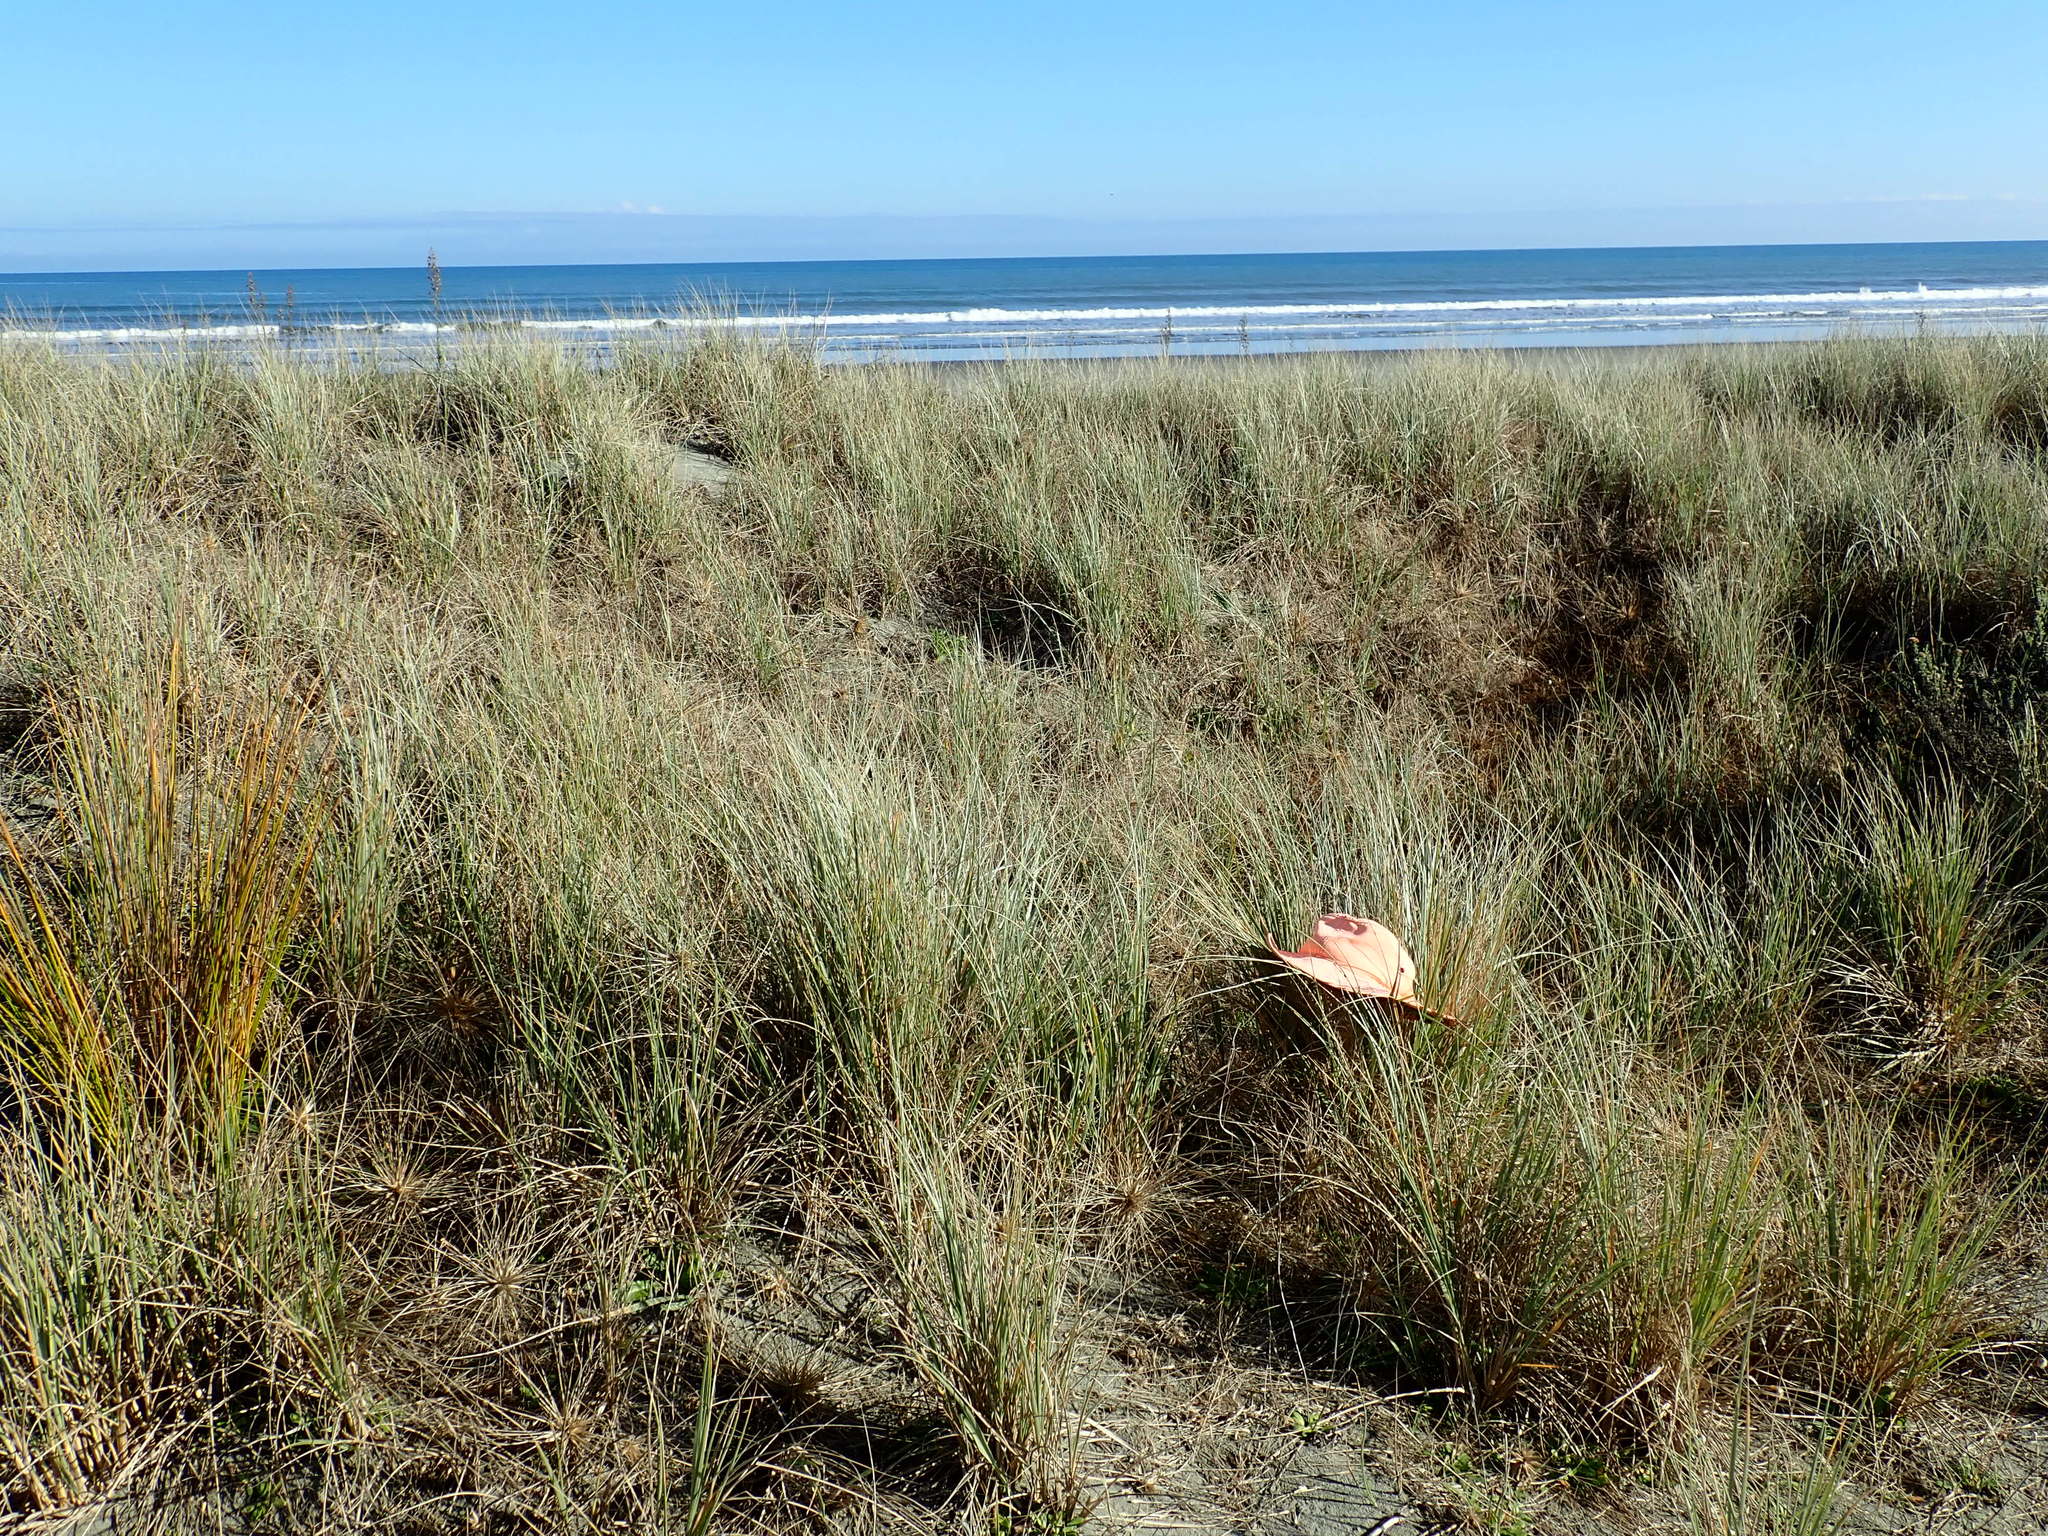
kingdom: Animalia
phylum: Arthropoda
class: Arachnida
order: Araneae
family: Theridiidae
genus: Latrodectus
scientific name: Latrodectus katipo
